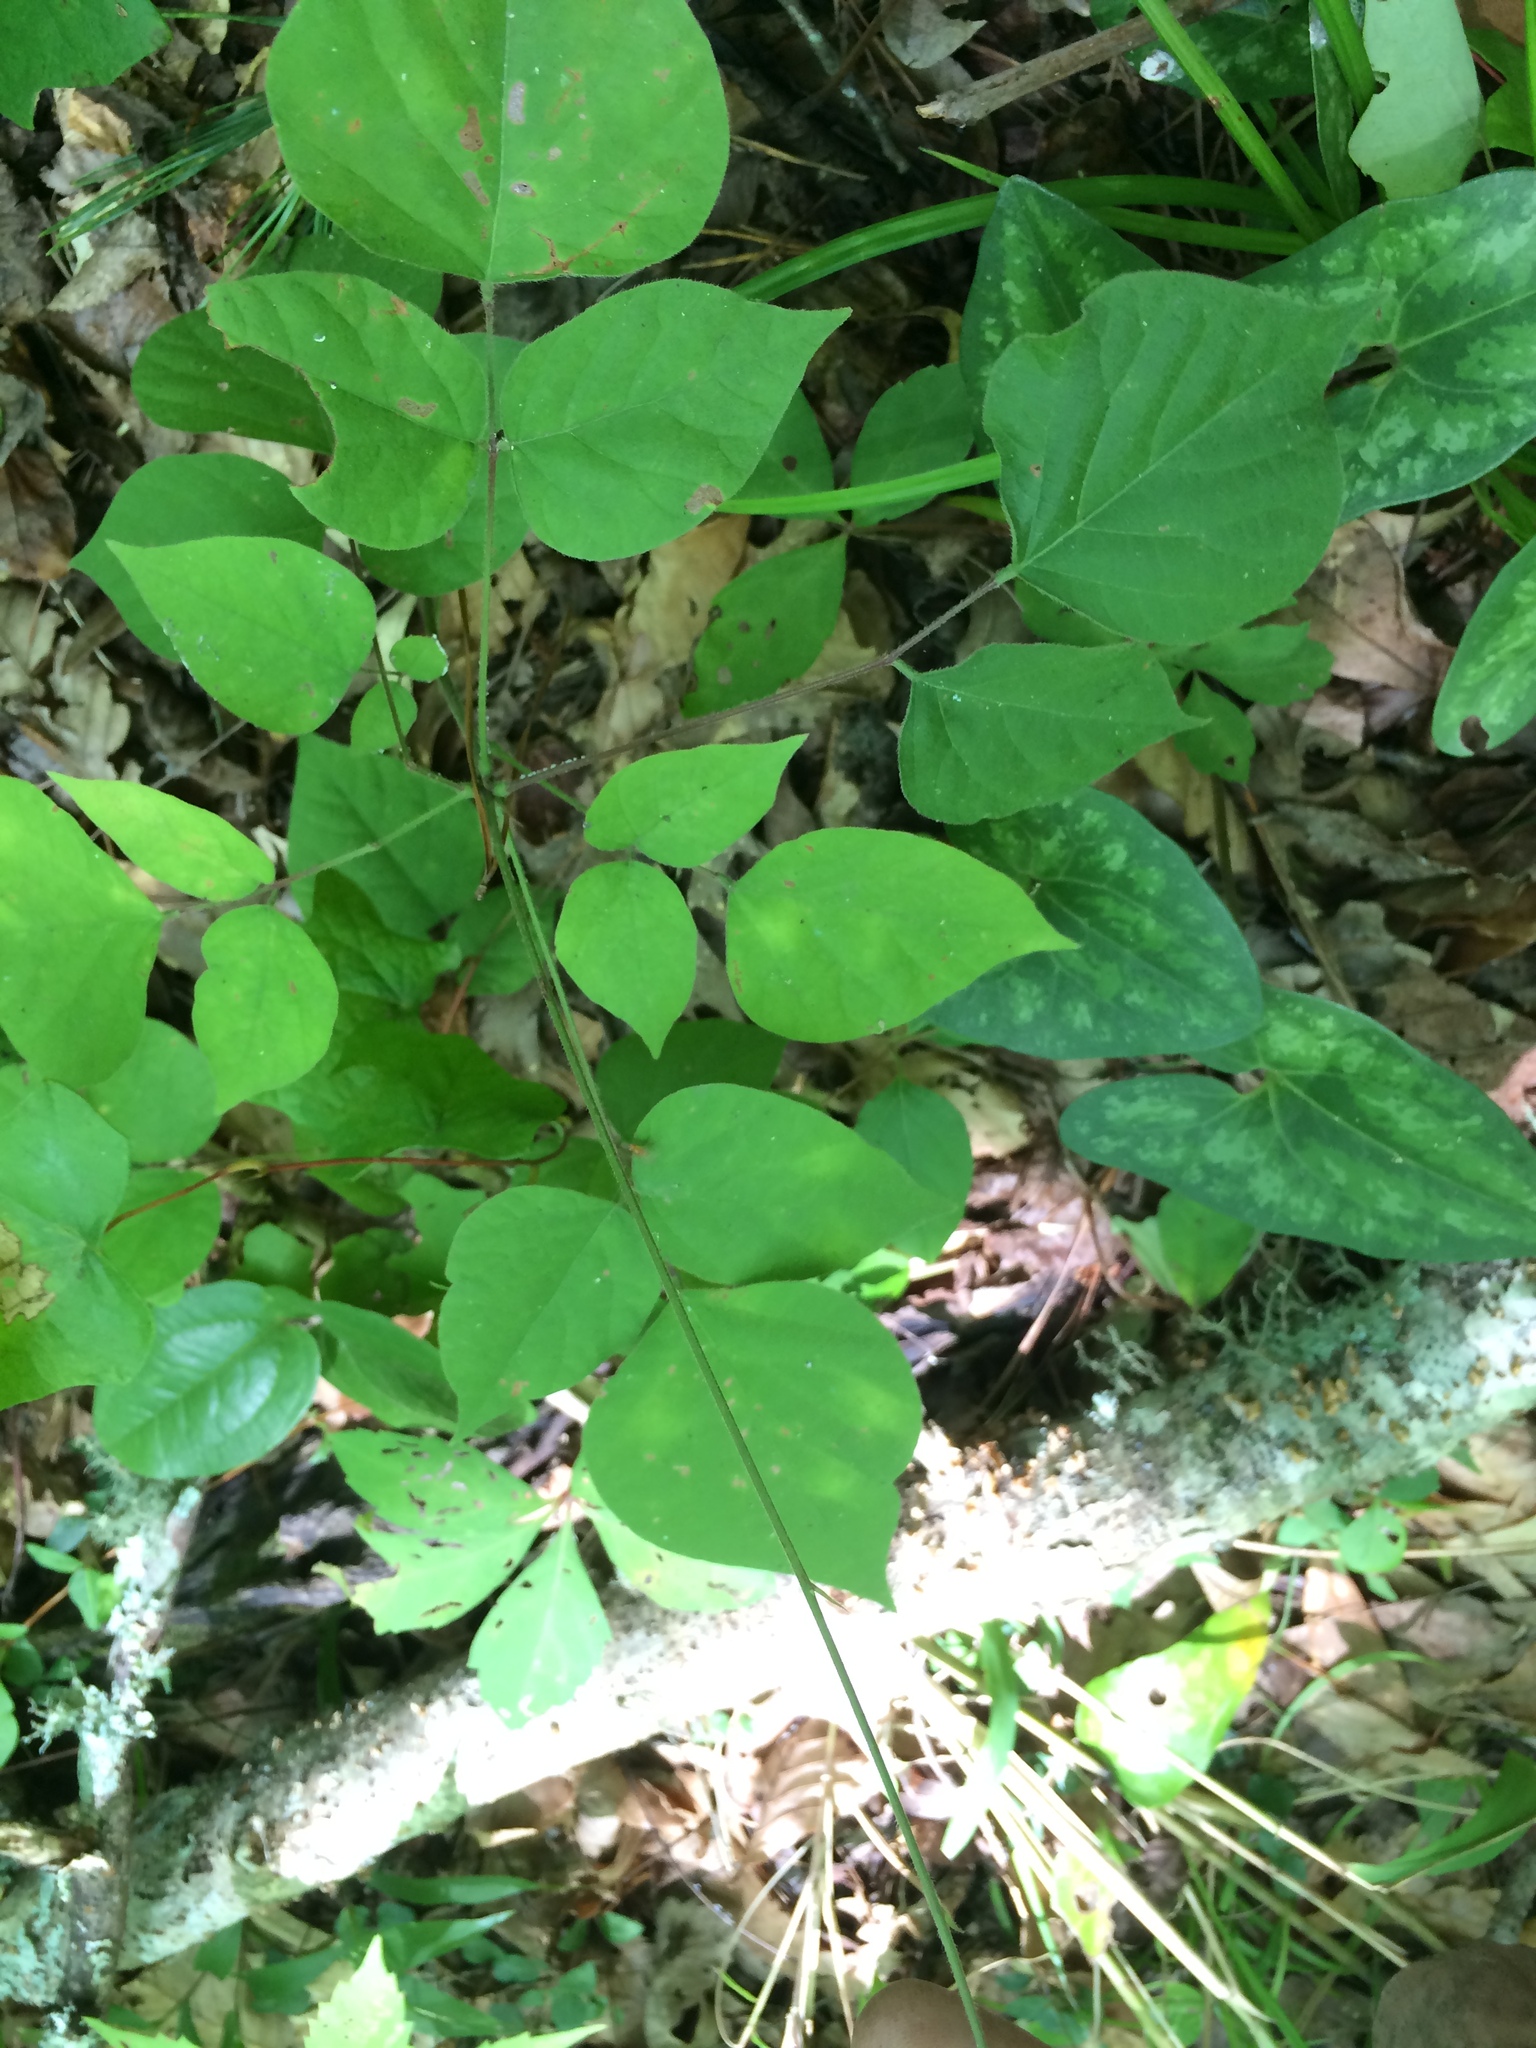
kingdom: Plantae
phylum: Tracheophyta
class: Magnoliopsida
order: Fabales
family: Fabaceae
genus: Hylodesmum
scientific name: Hylodesmum glutinosum
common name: Clustered-leaved tick-trefoil
